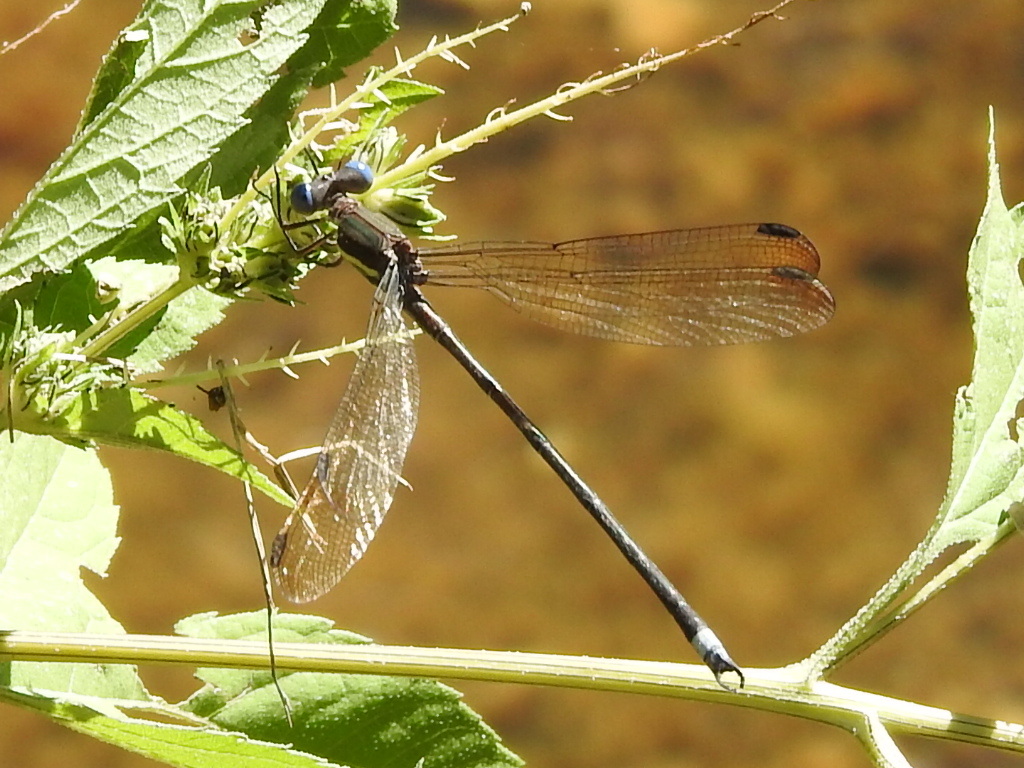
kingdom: Animalia
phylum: Arthropoda
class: Insecta
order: Odonata
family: Lestidae
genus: Archilestes
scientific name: Archilestes grandis
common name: Great spreadwing
